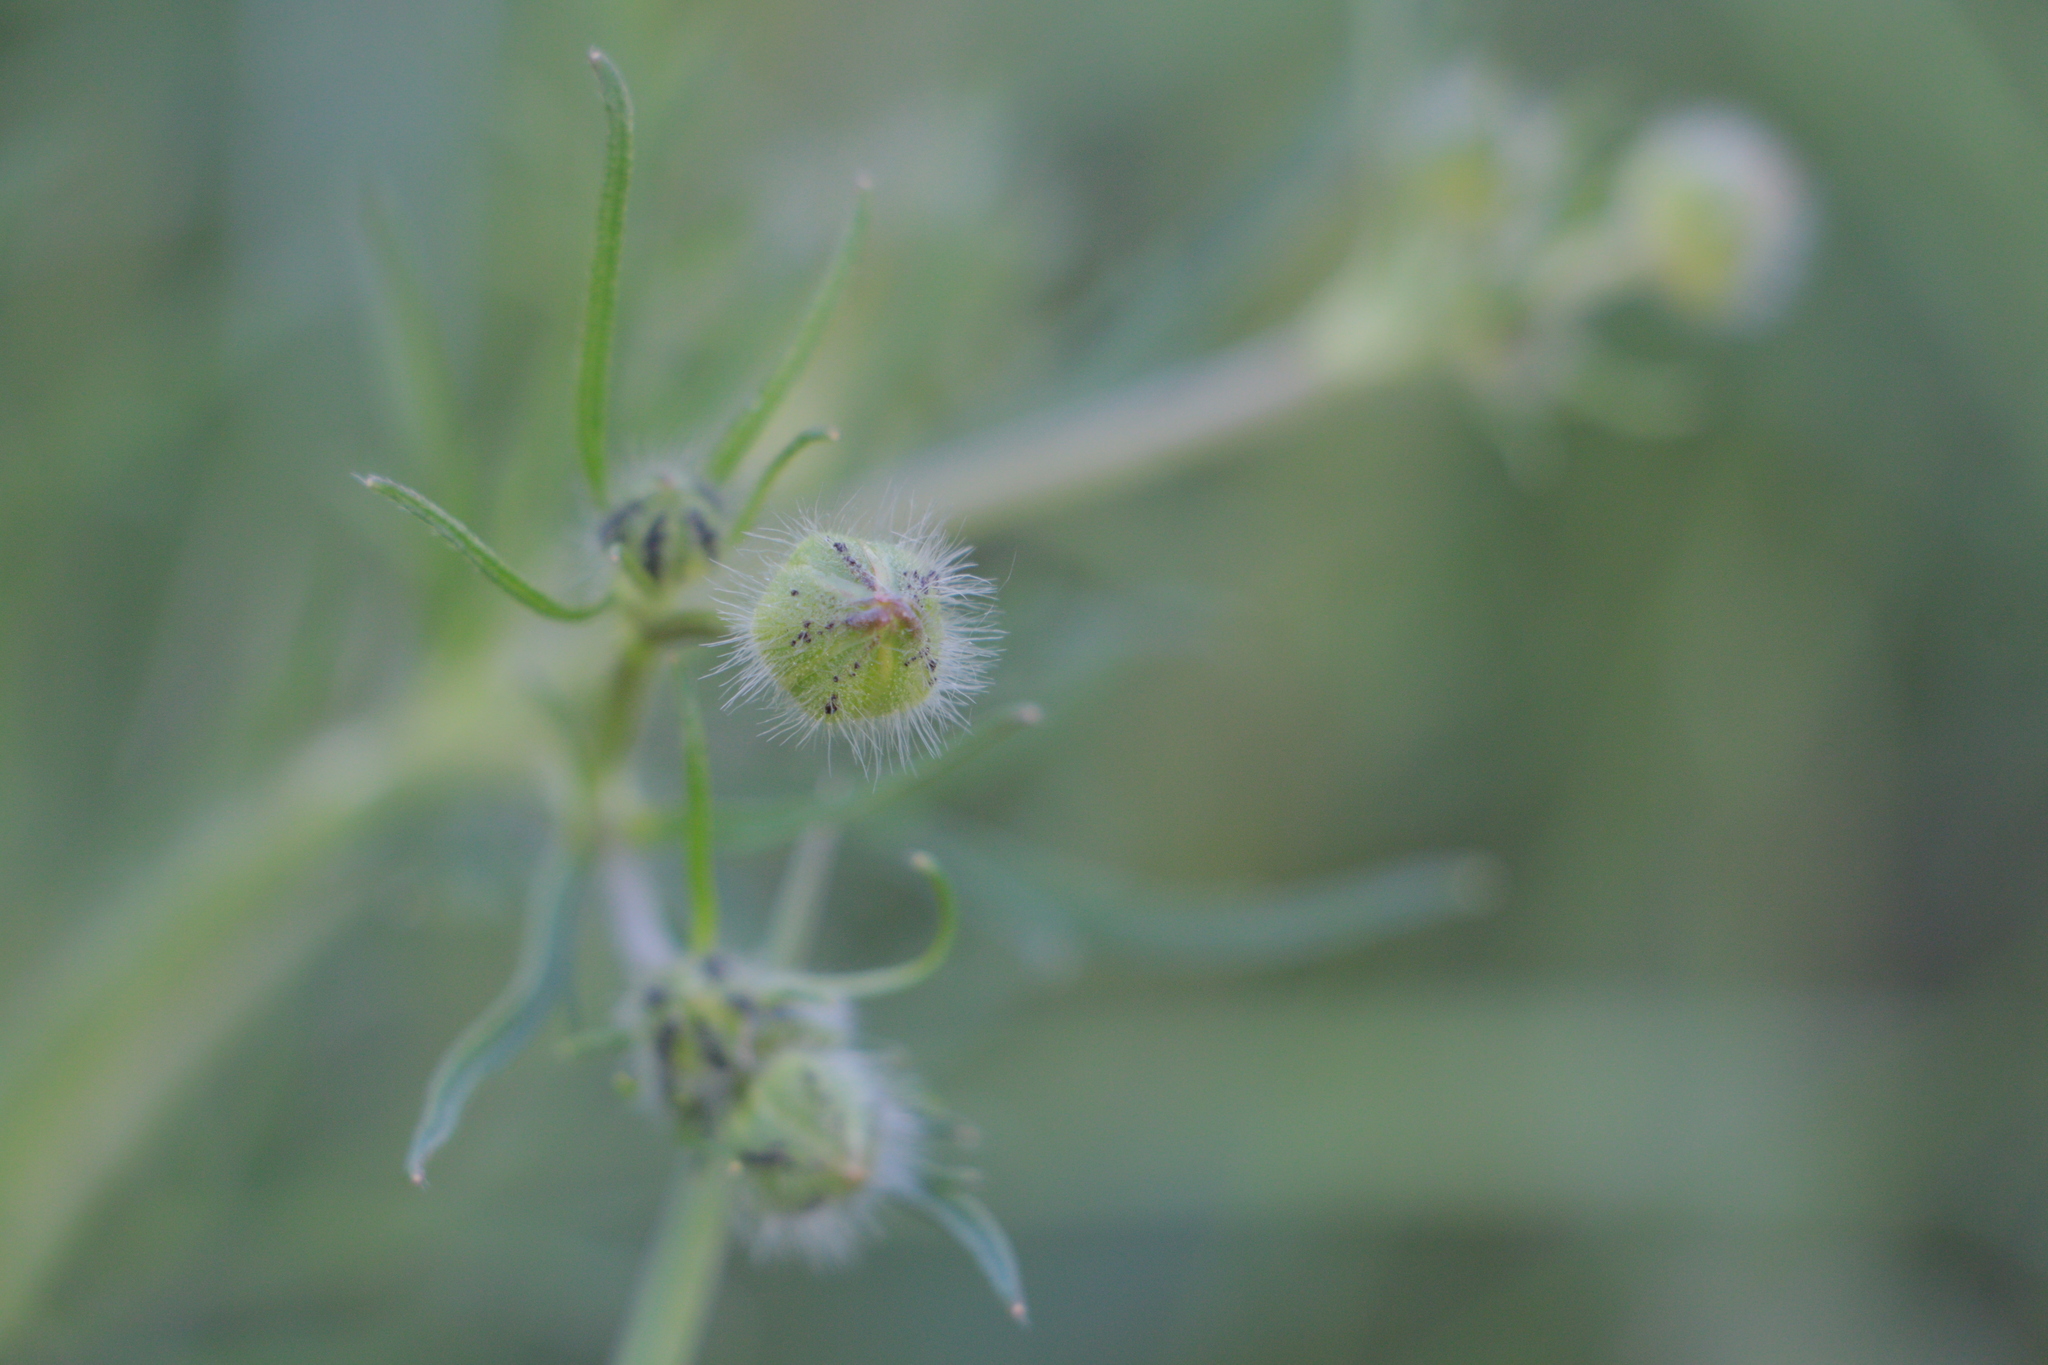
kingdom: Plantae
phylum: Tracheophyta
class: Magnoliopsida
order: Ranunculales
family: Ranunculaceae
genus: Ranunculus
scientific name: Ranunculus polyanthemos
